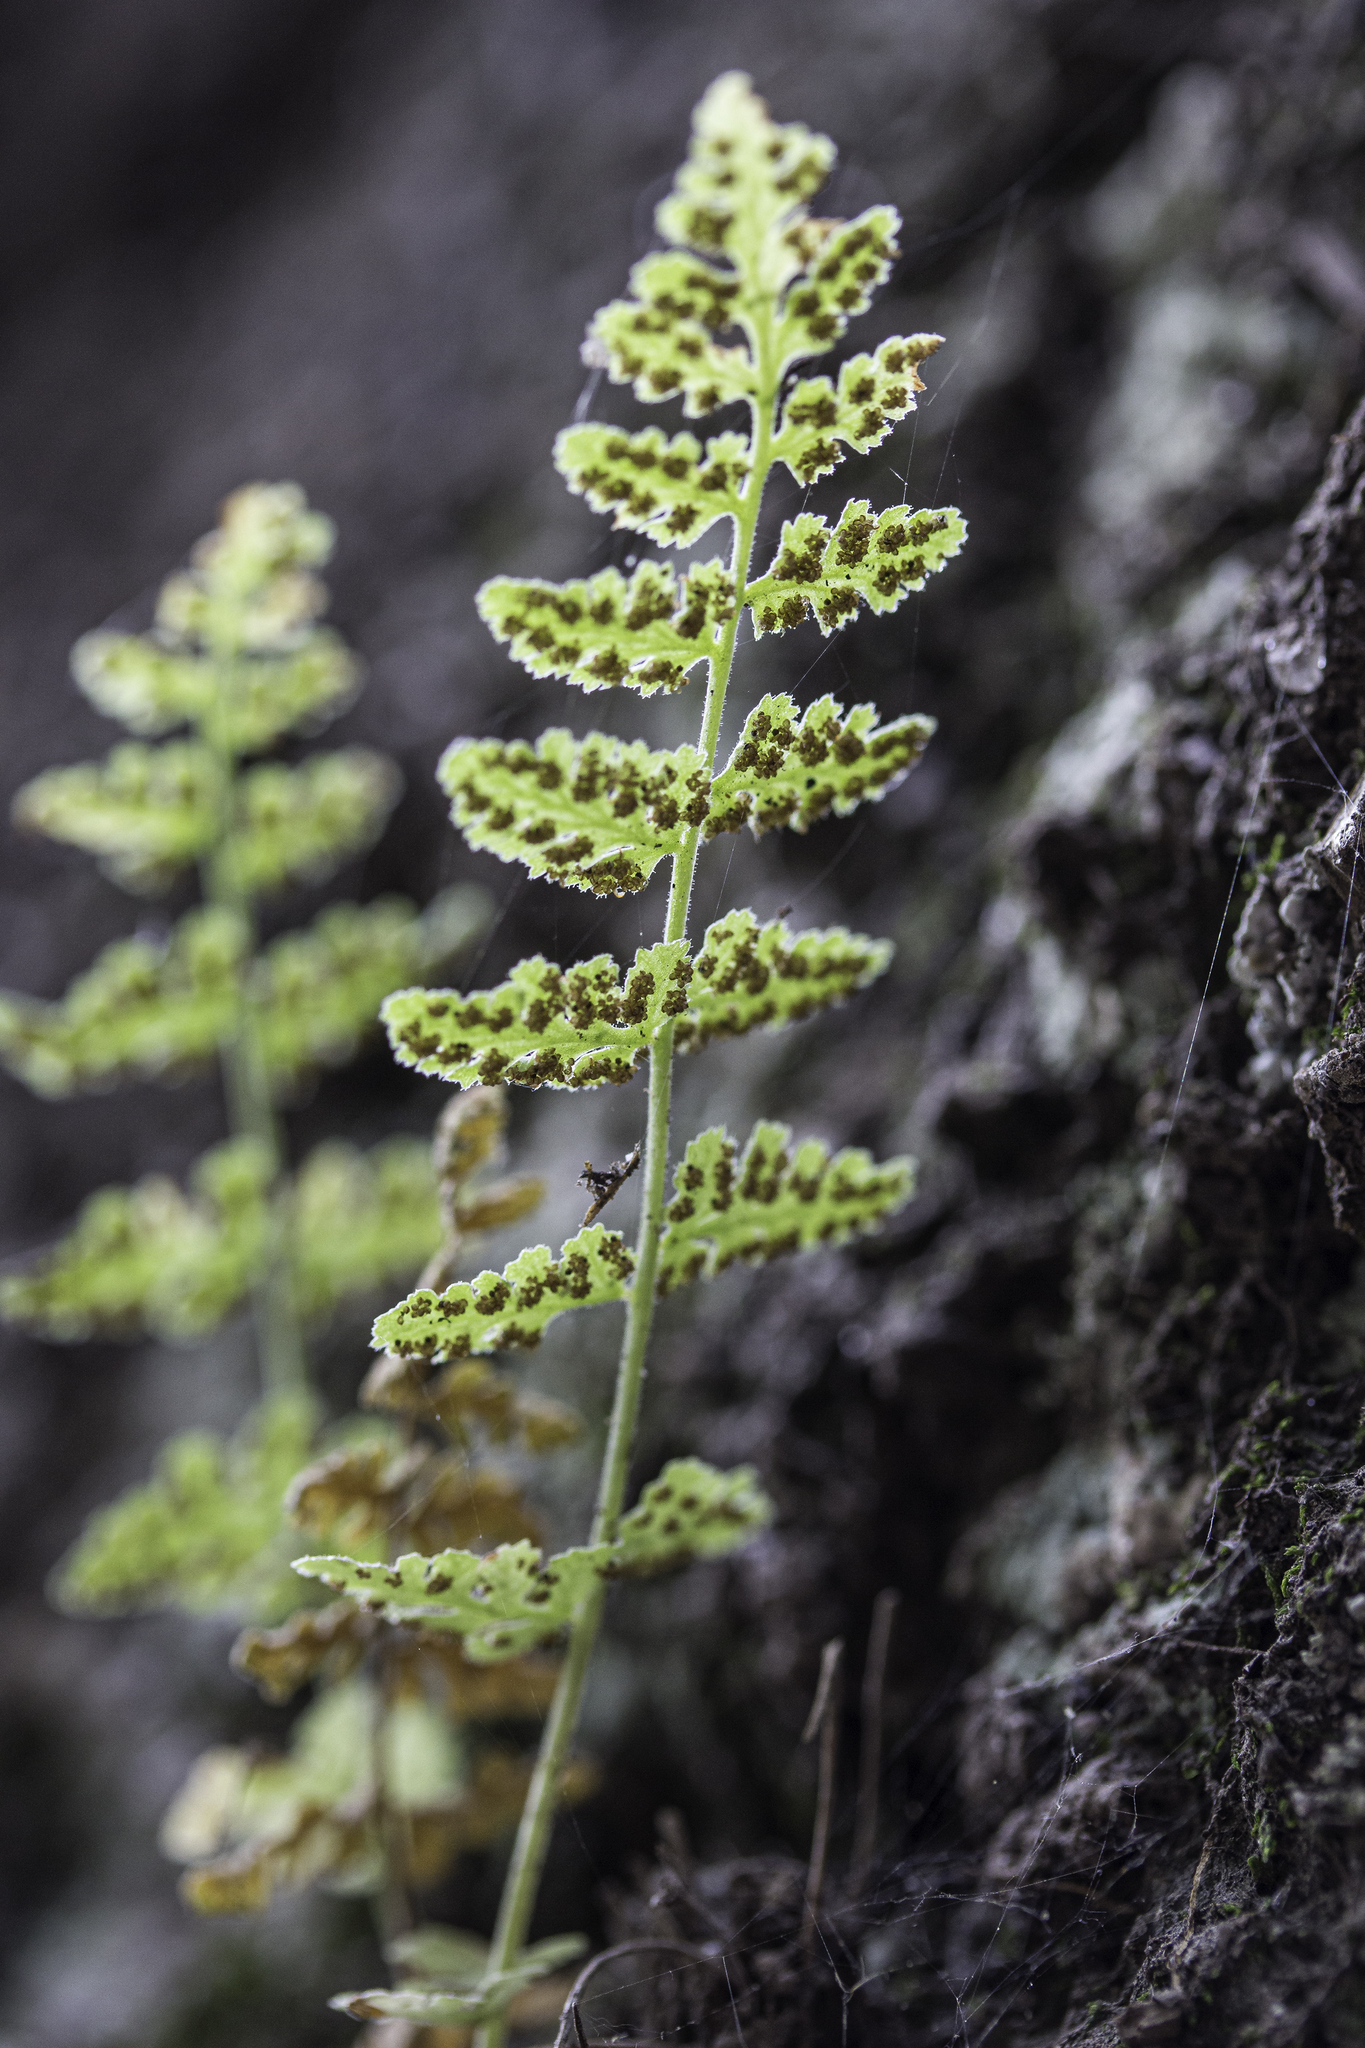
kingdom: Plantae
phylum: Tracheophyta
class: Polypodiopsida
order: Polypodiales
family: Woodsiaceae
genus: Physematium
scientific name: Physematium neomexicanum
